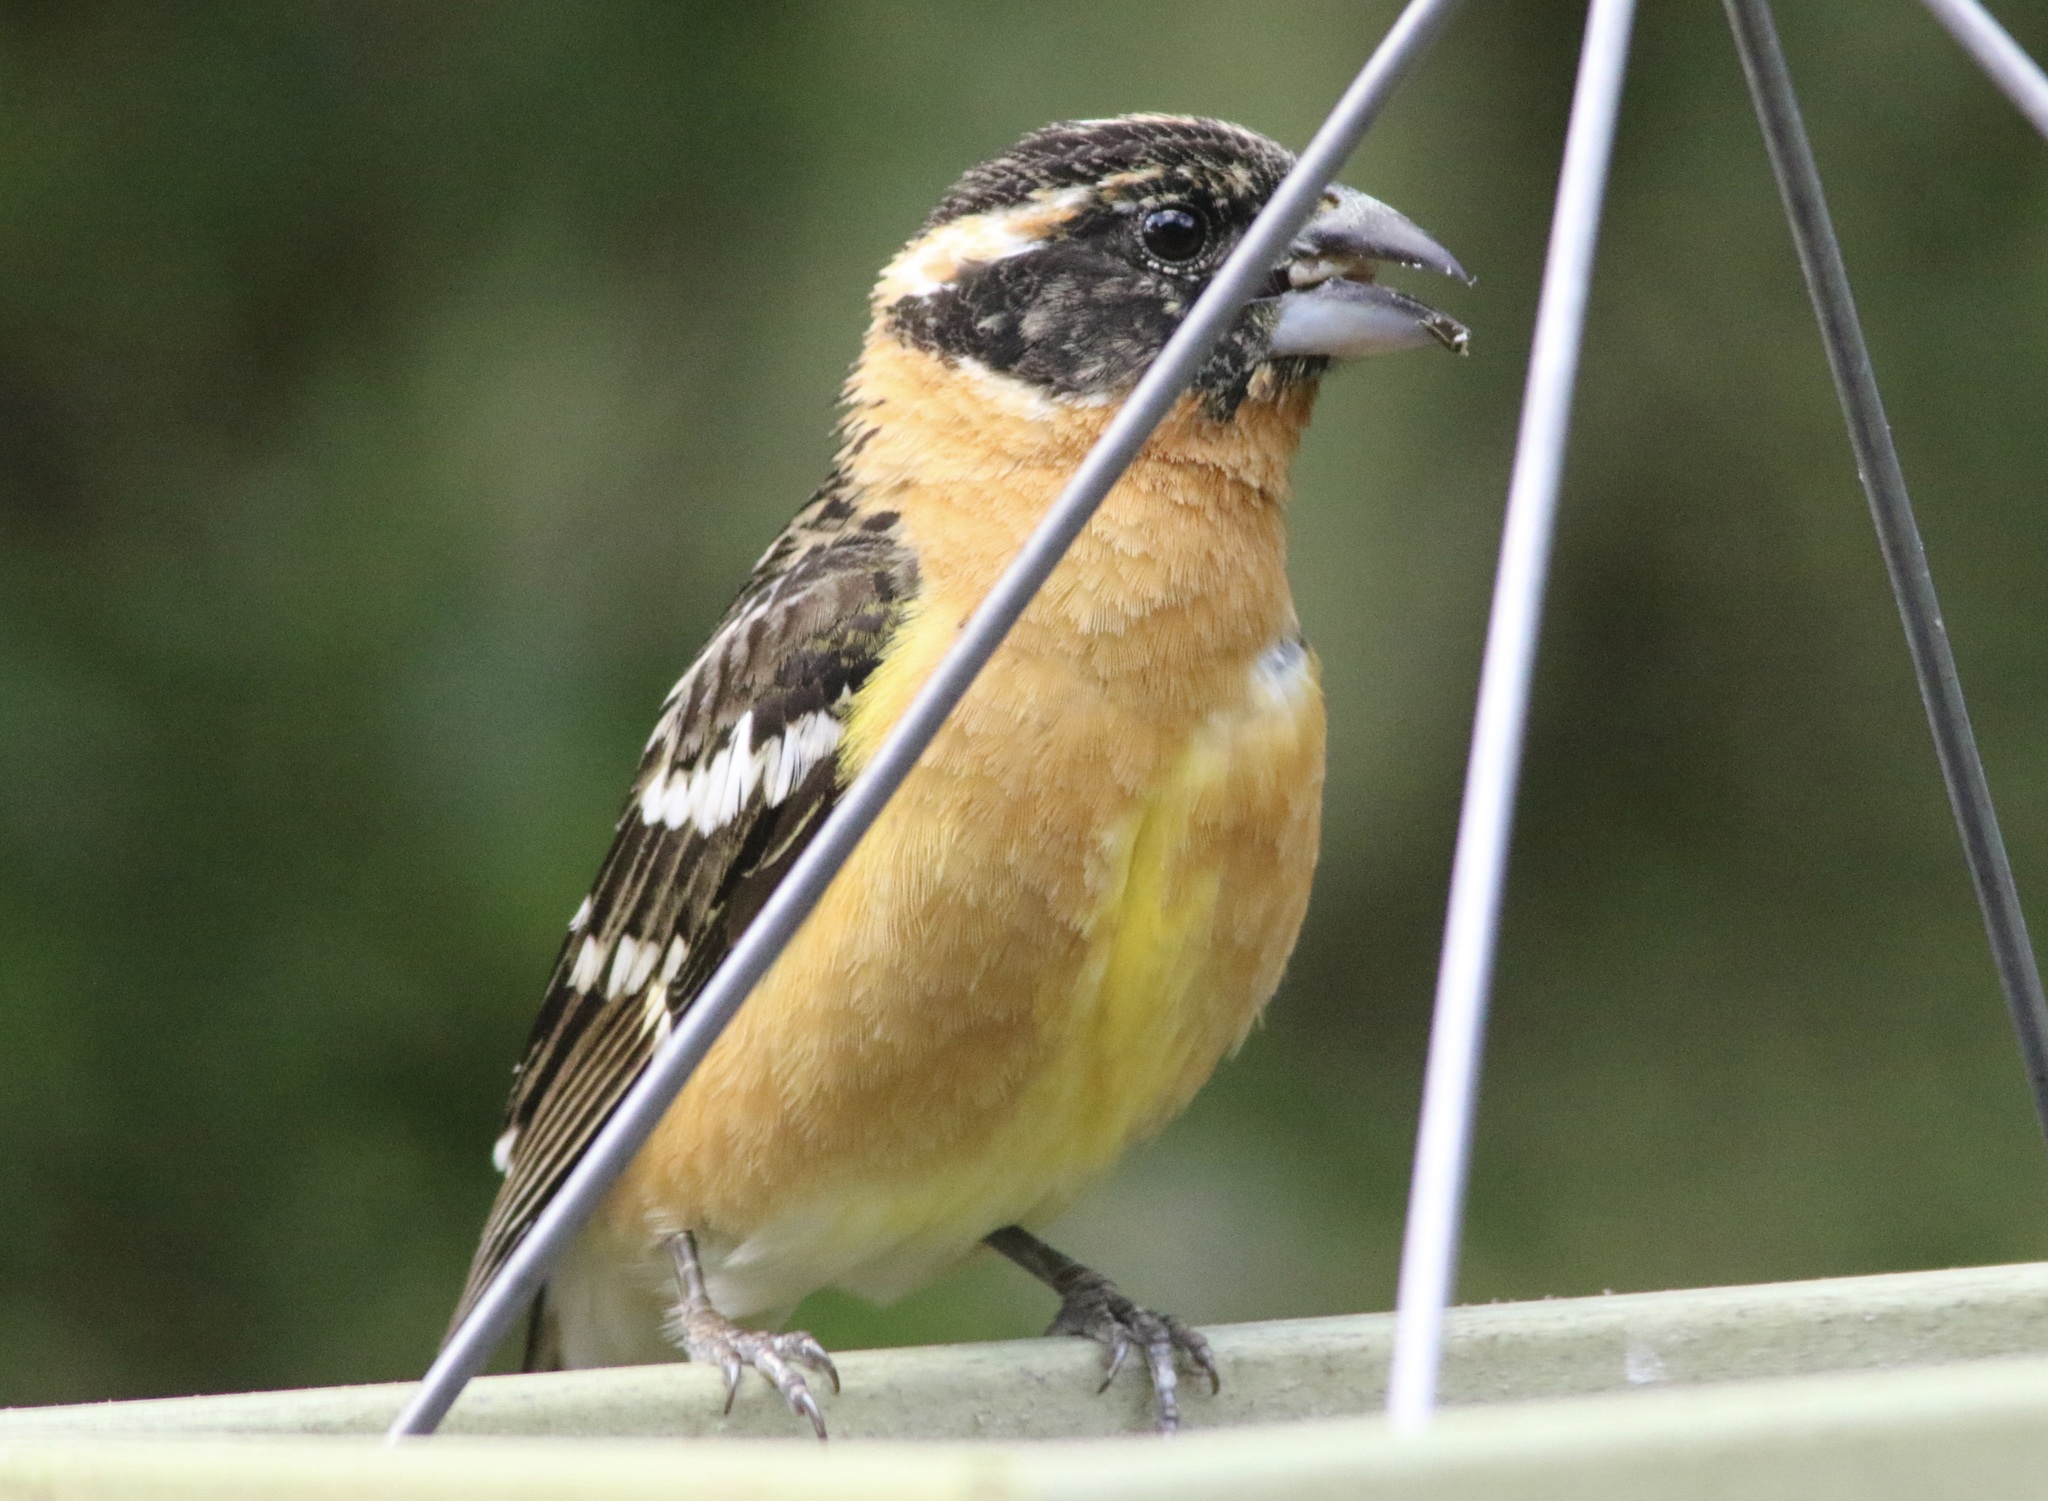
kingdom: Animalia
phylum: Chordata
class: Aves
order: Passeriformes
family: Cardinalidae
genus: Pheucticus
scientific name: Pheucticus melanocephalus
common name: Black-headed grosbeak
